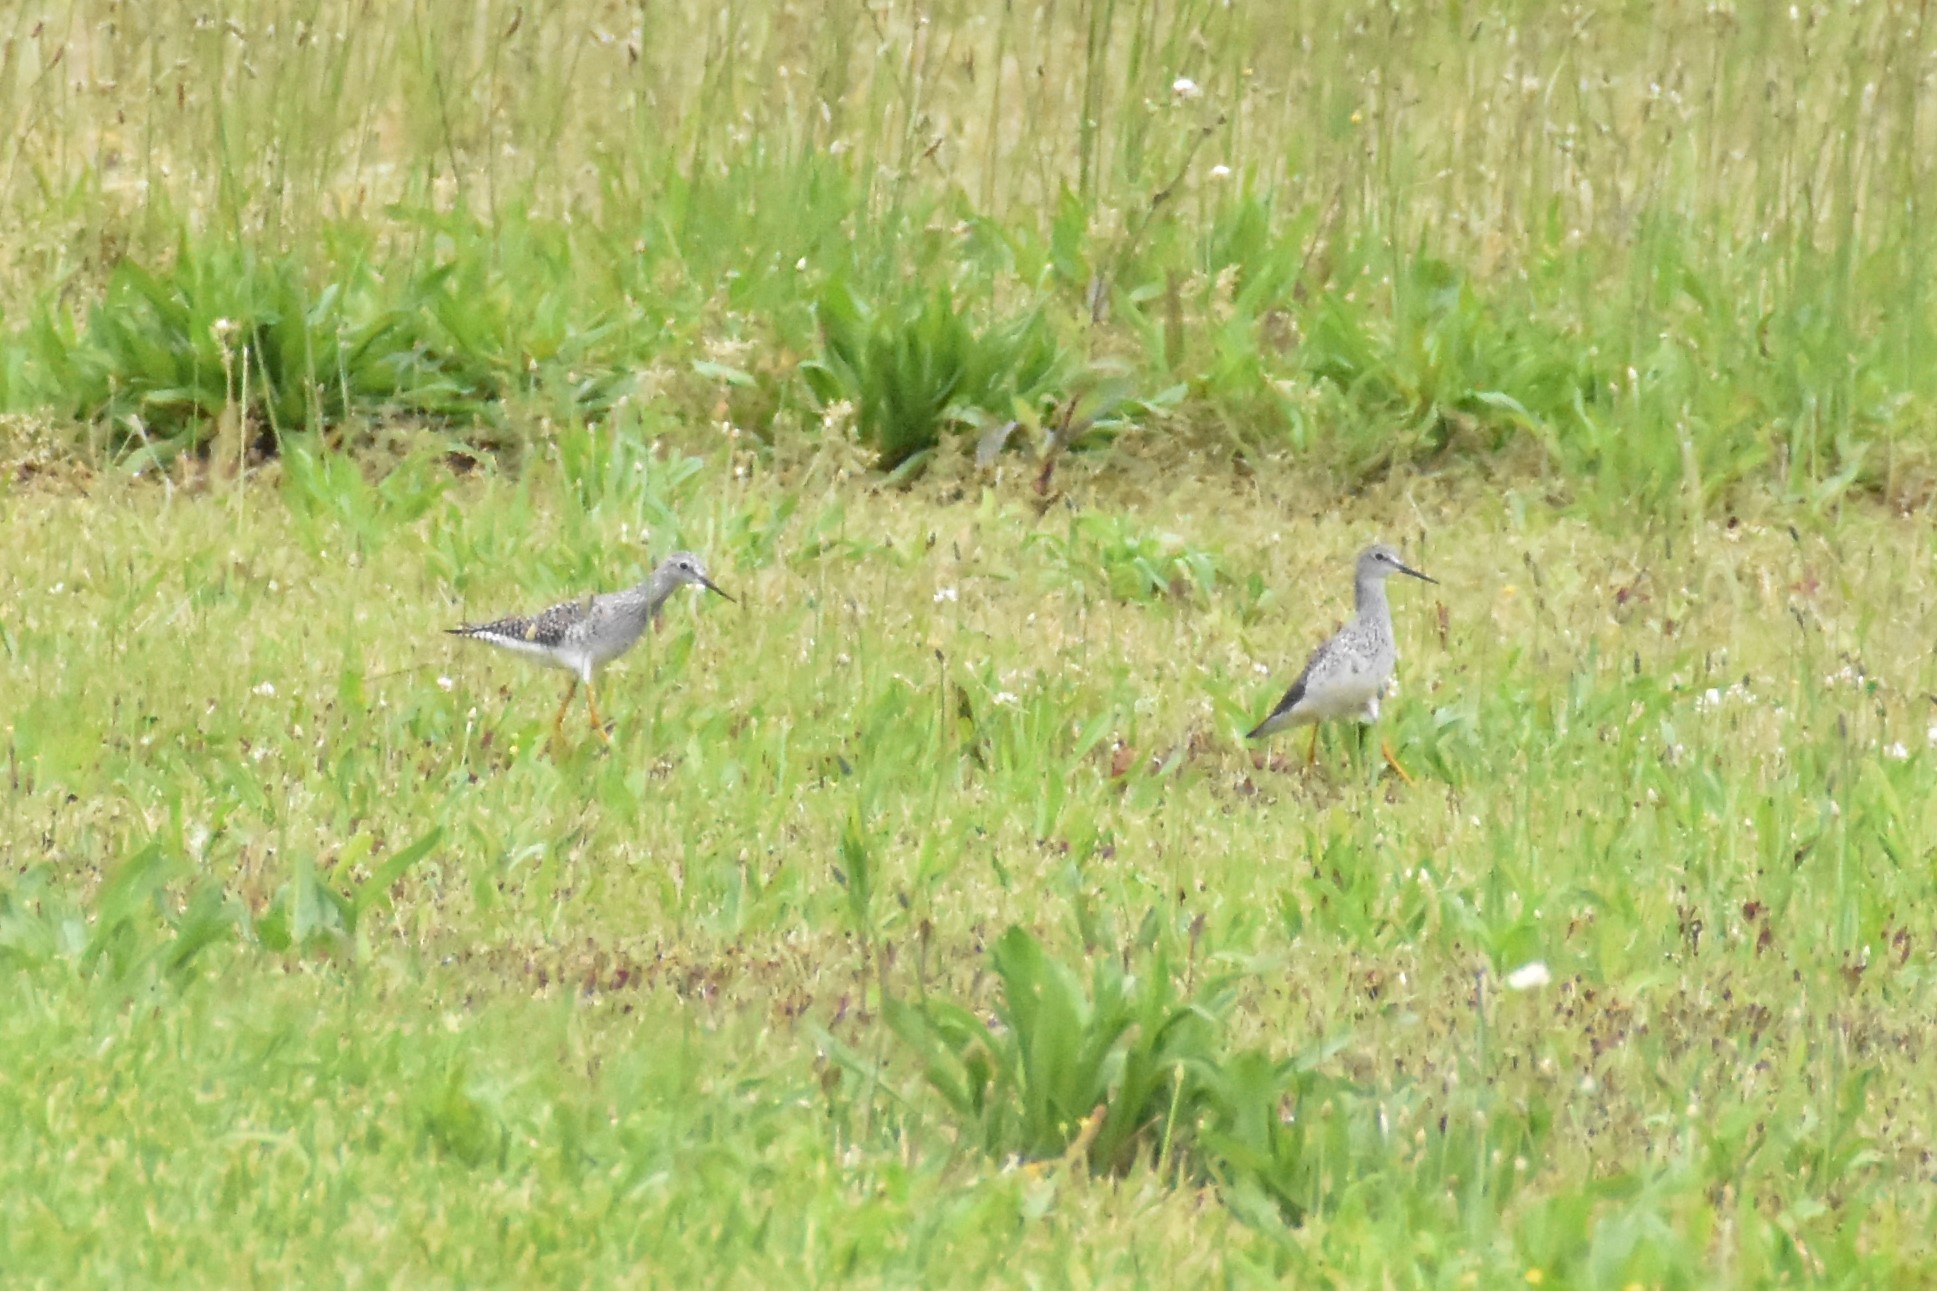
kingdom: Animalia
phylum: Chordata
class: Aves
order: Charadriiformes
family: Scolopacidae
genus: Tringa
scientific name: Tringa flavipes
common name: Lesser yellowlegs
